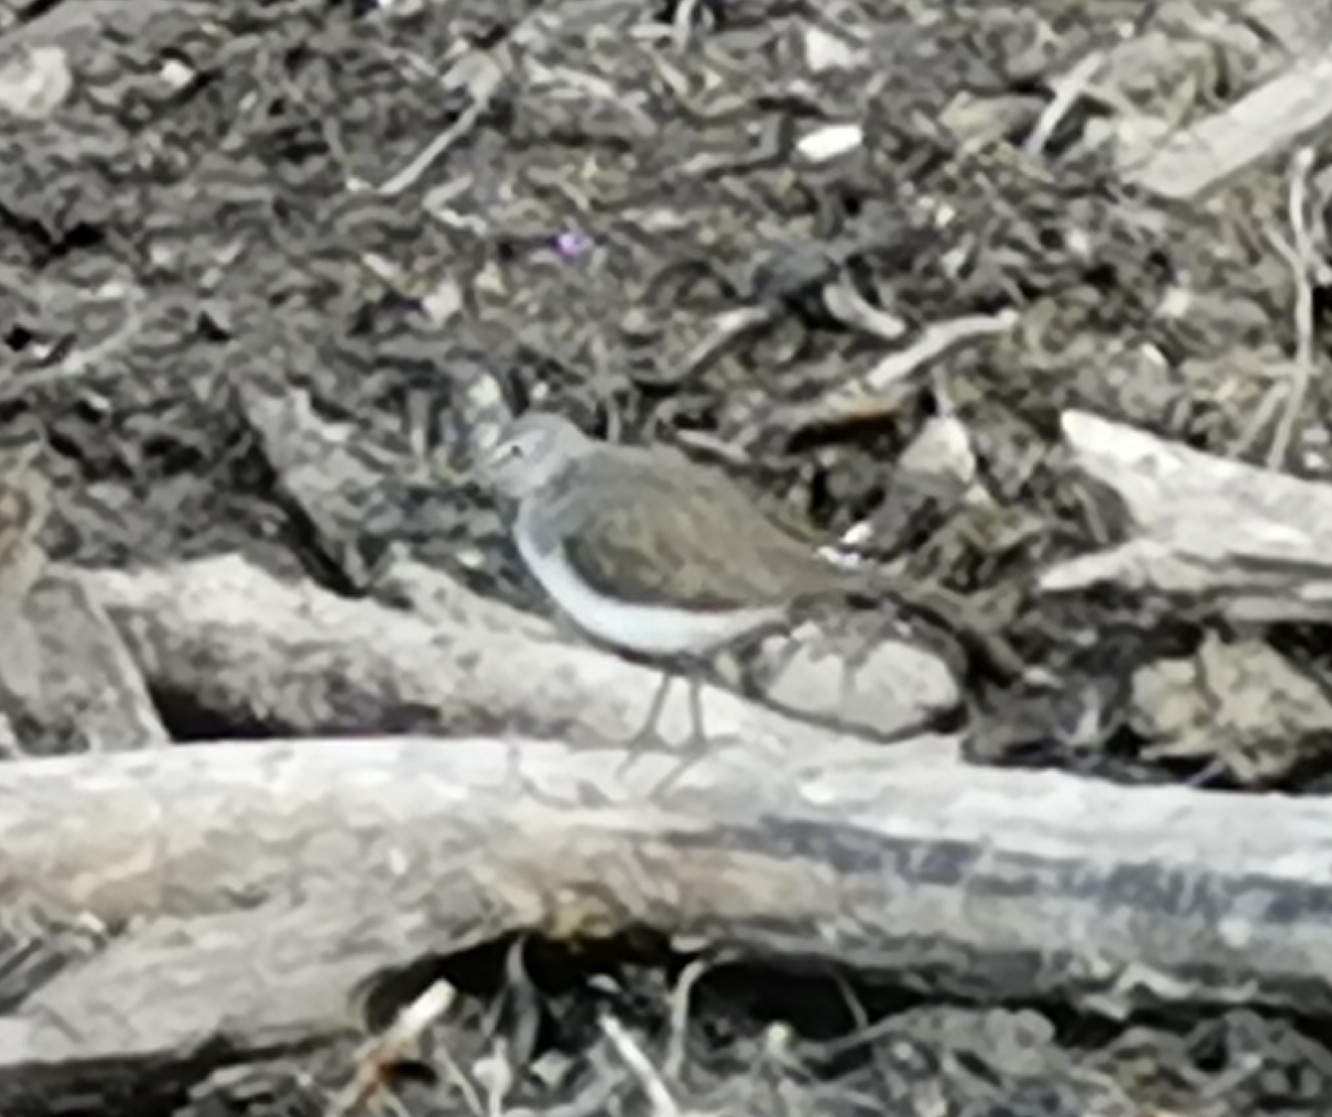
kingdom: Animalia
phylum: Chordata
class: Aves
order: Charadriiformes
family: Scolopacidae
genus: Tringa
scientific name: Tringa ochropus
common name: Green sandpiper
